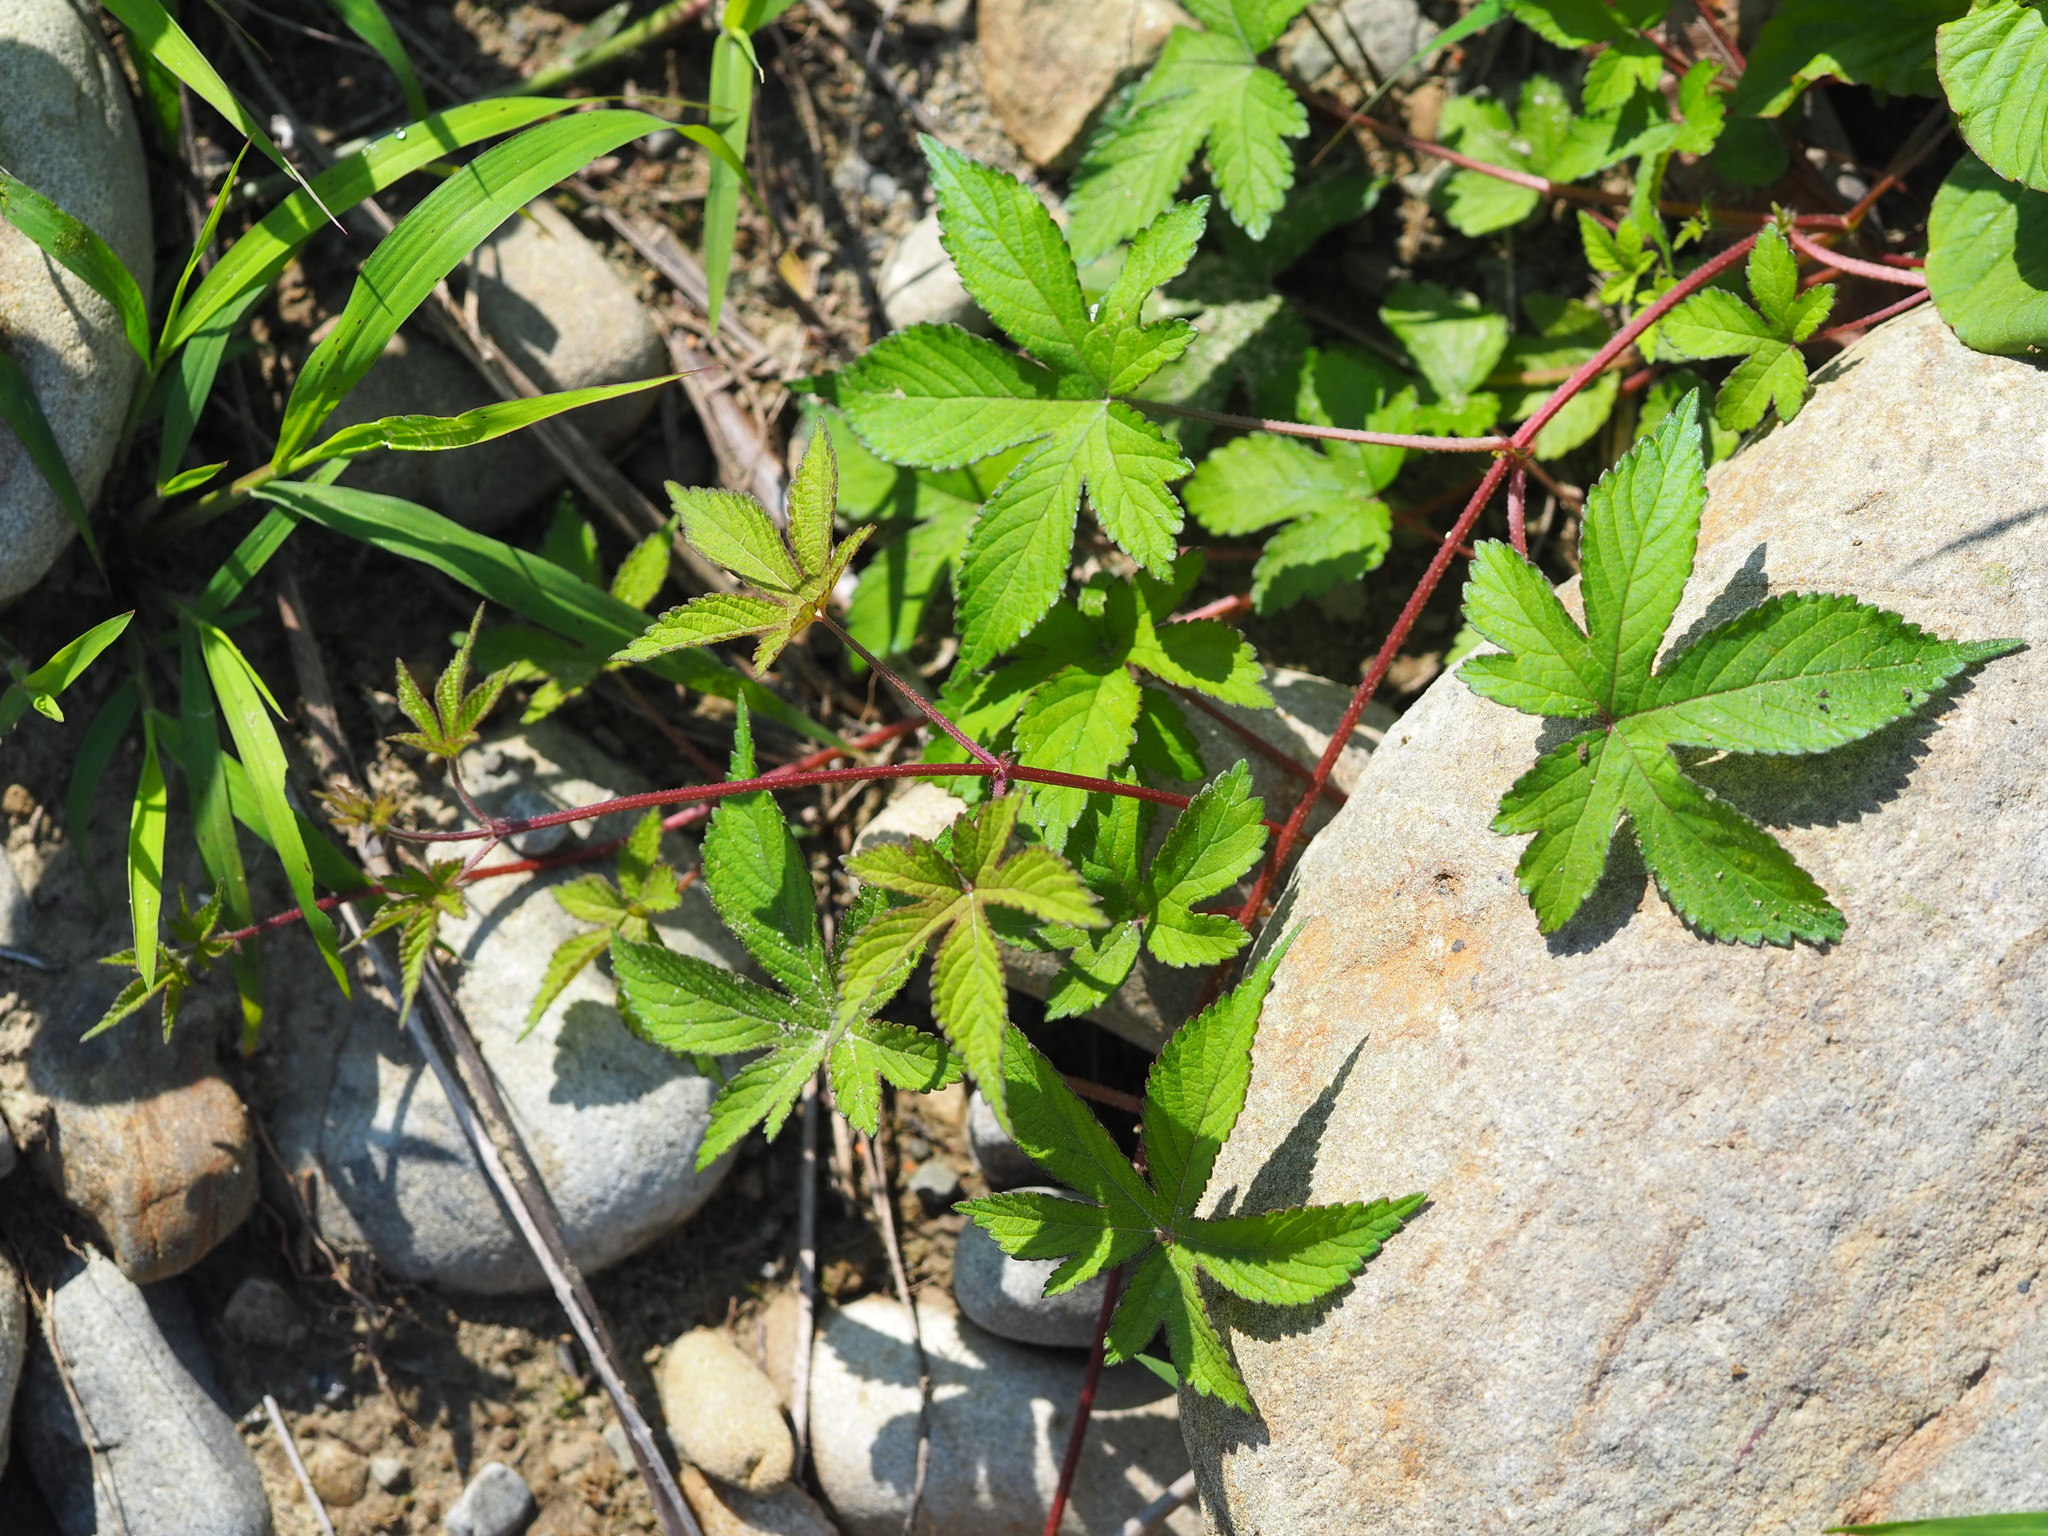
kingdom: Plantae
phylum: Tracheophyta
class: Magnoliopsida
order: Rosales
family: Cannabaceae
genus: Humulus
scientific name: Humulus scandens
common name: Japanese hop
